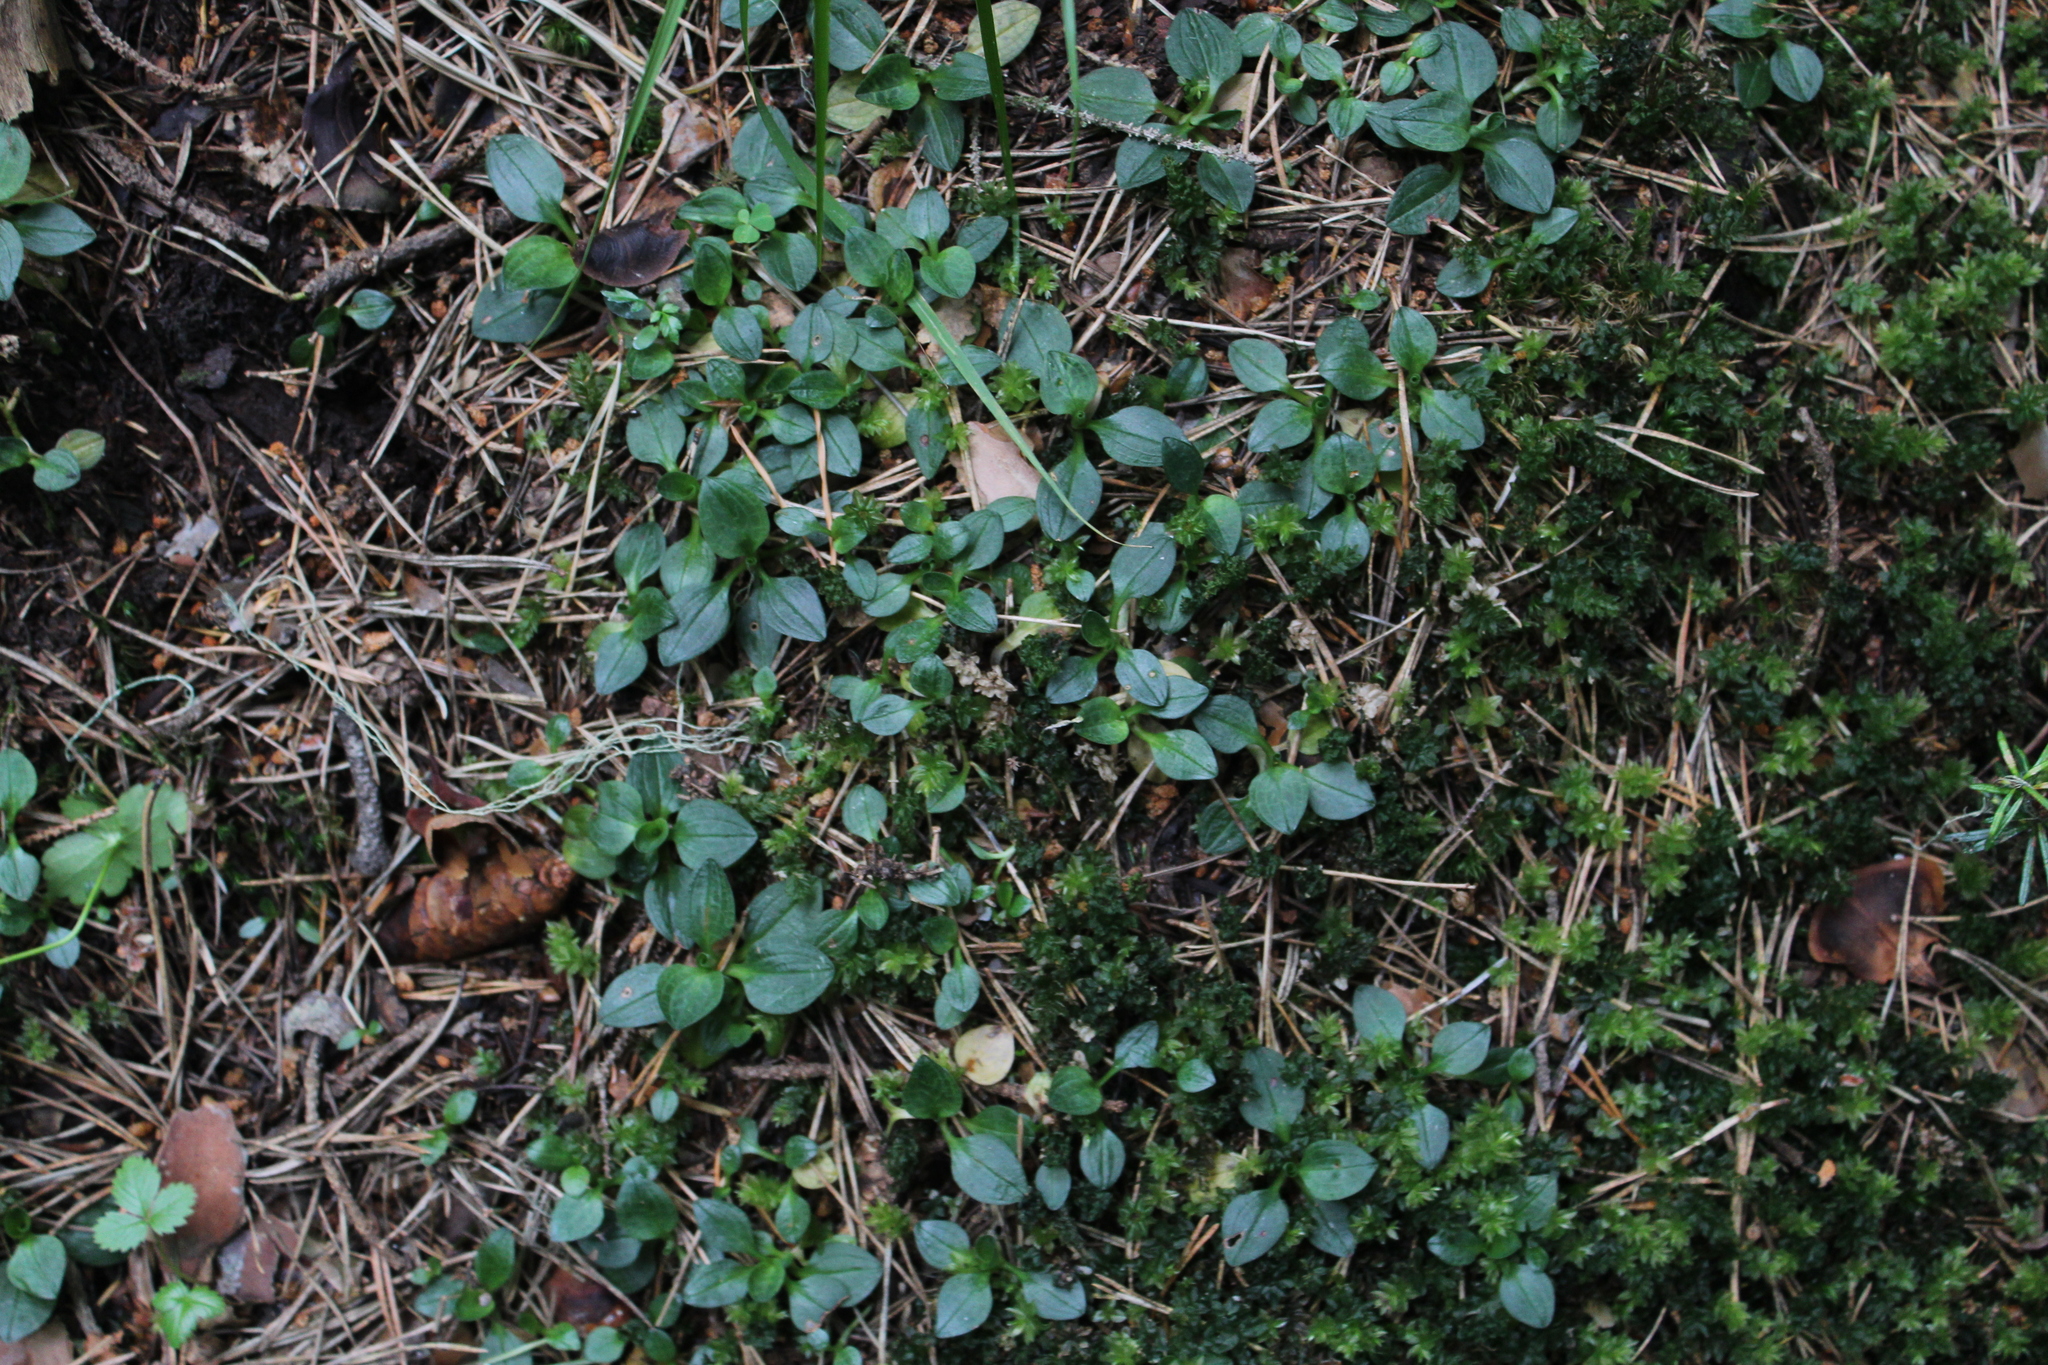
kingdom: Plantae
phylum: Tracheophyta
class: Liliopsida
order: Asparagales
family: Orchidaceae
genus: Goodyera
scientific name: Goodyera repens
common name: Creeping lady's-tresses
